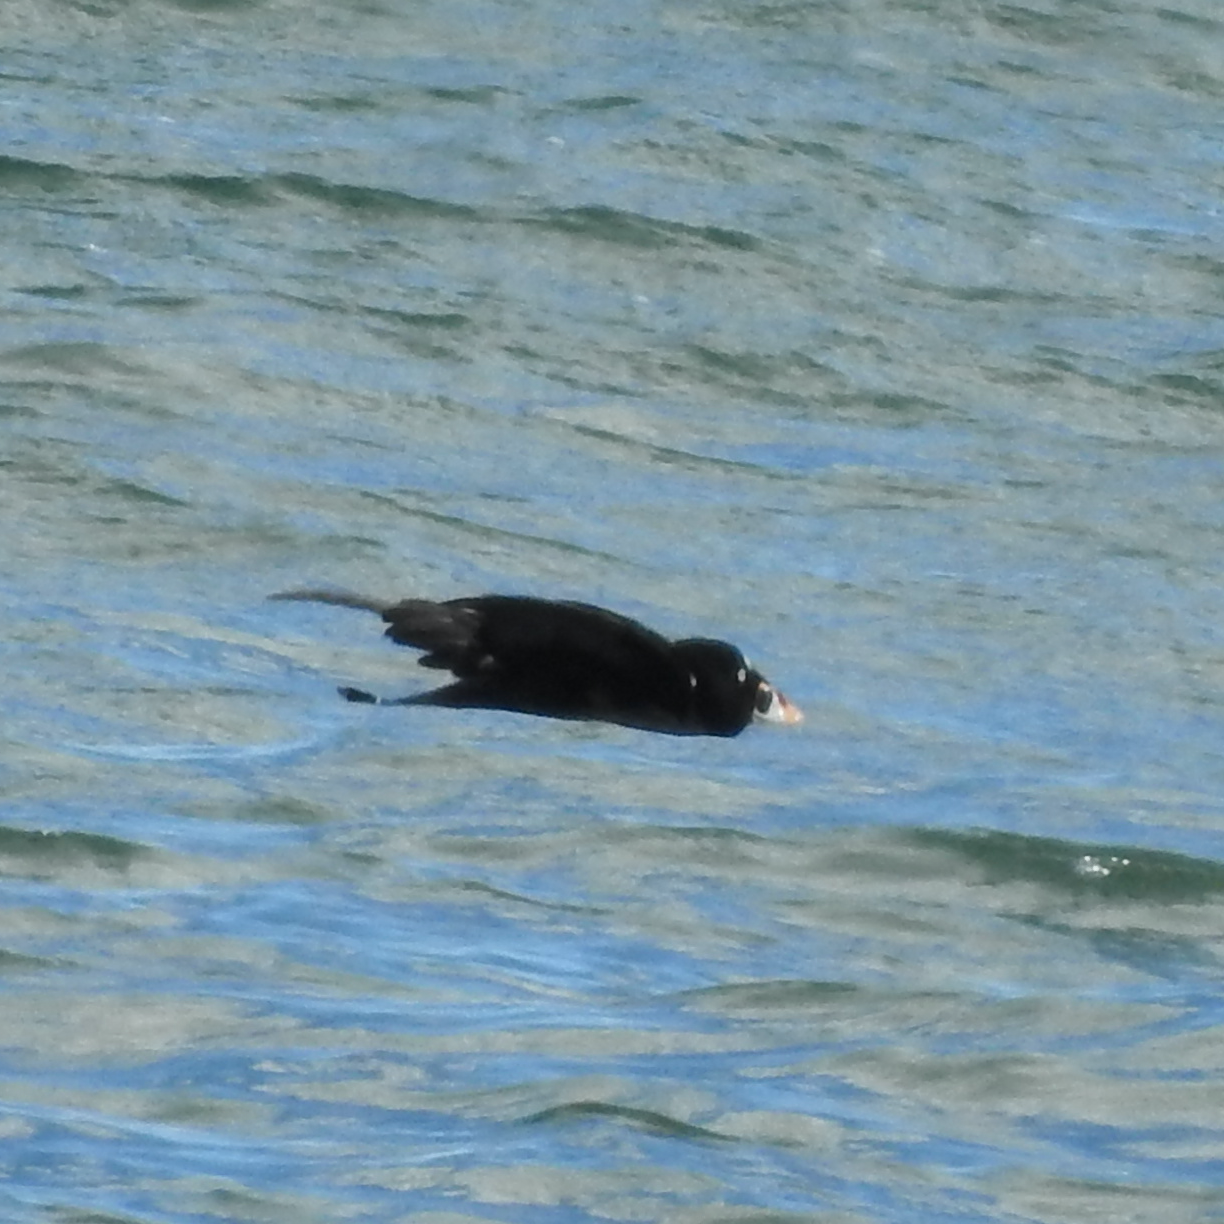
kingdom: Animalia
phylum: Chordata
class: Aves
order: Anseriformes
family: Anatidae
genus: Melanitta
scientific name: Melanitta perspicillata
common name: Surf scoter
